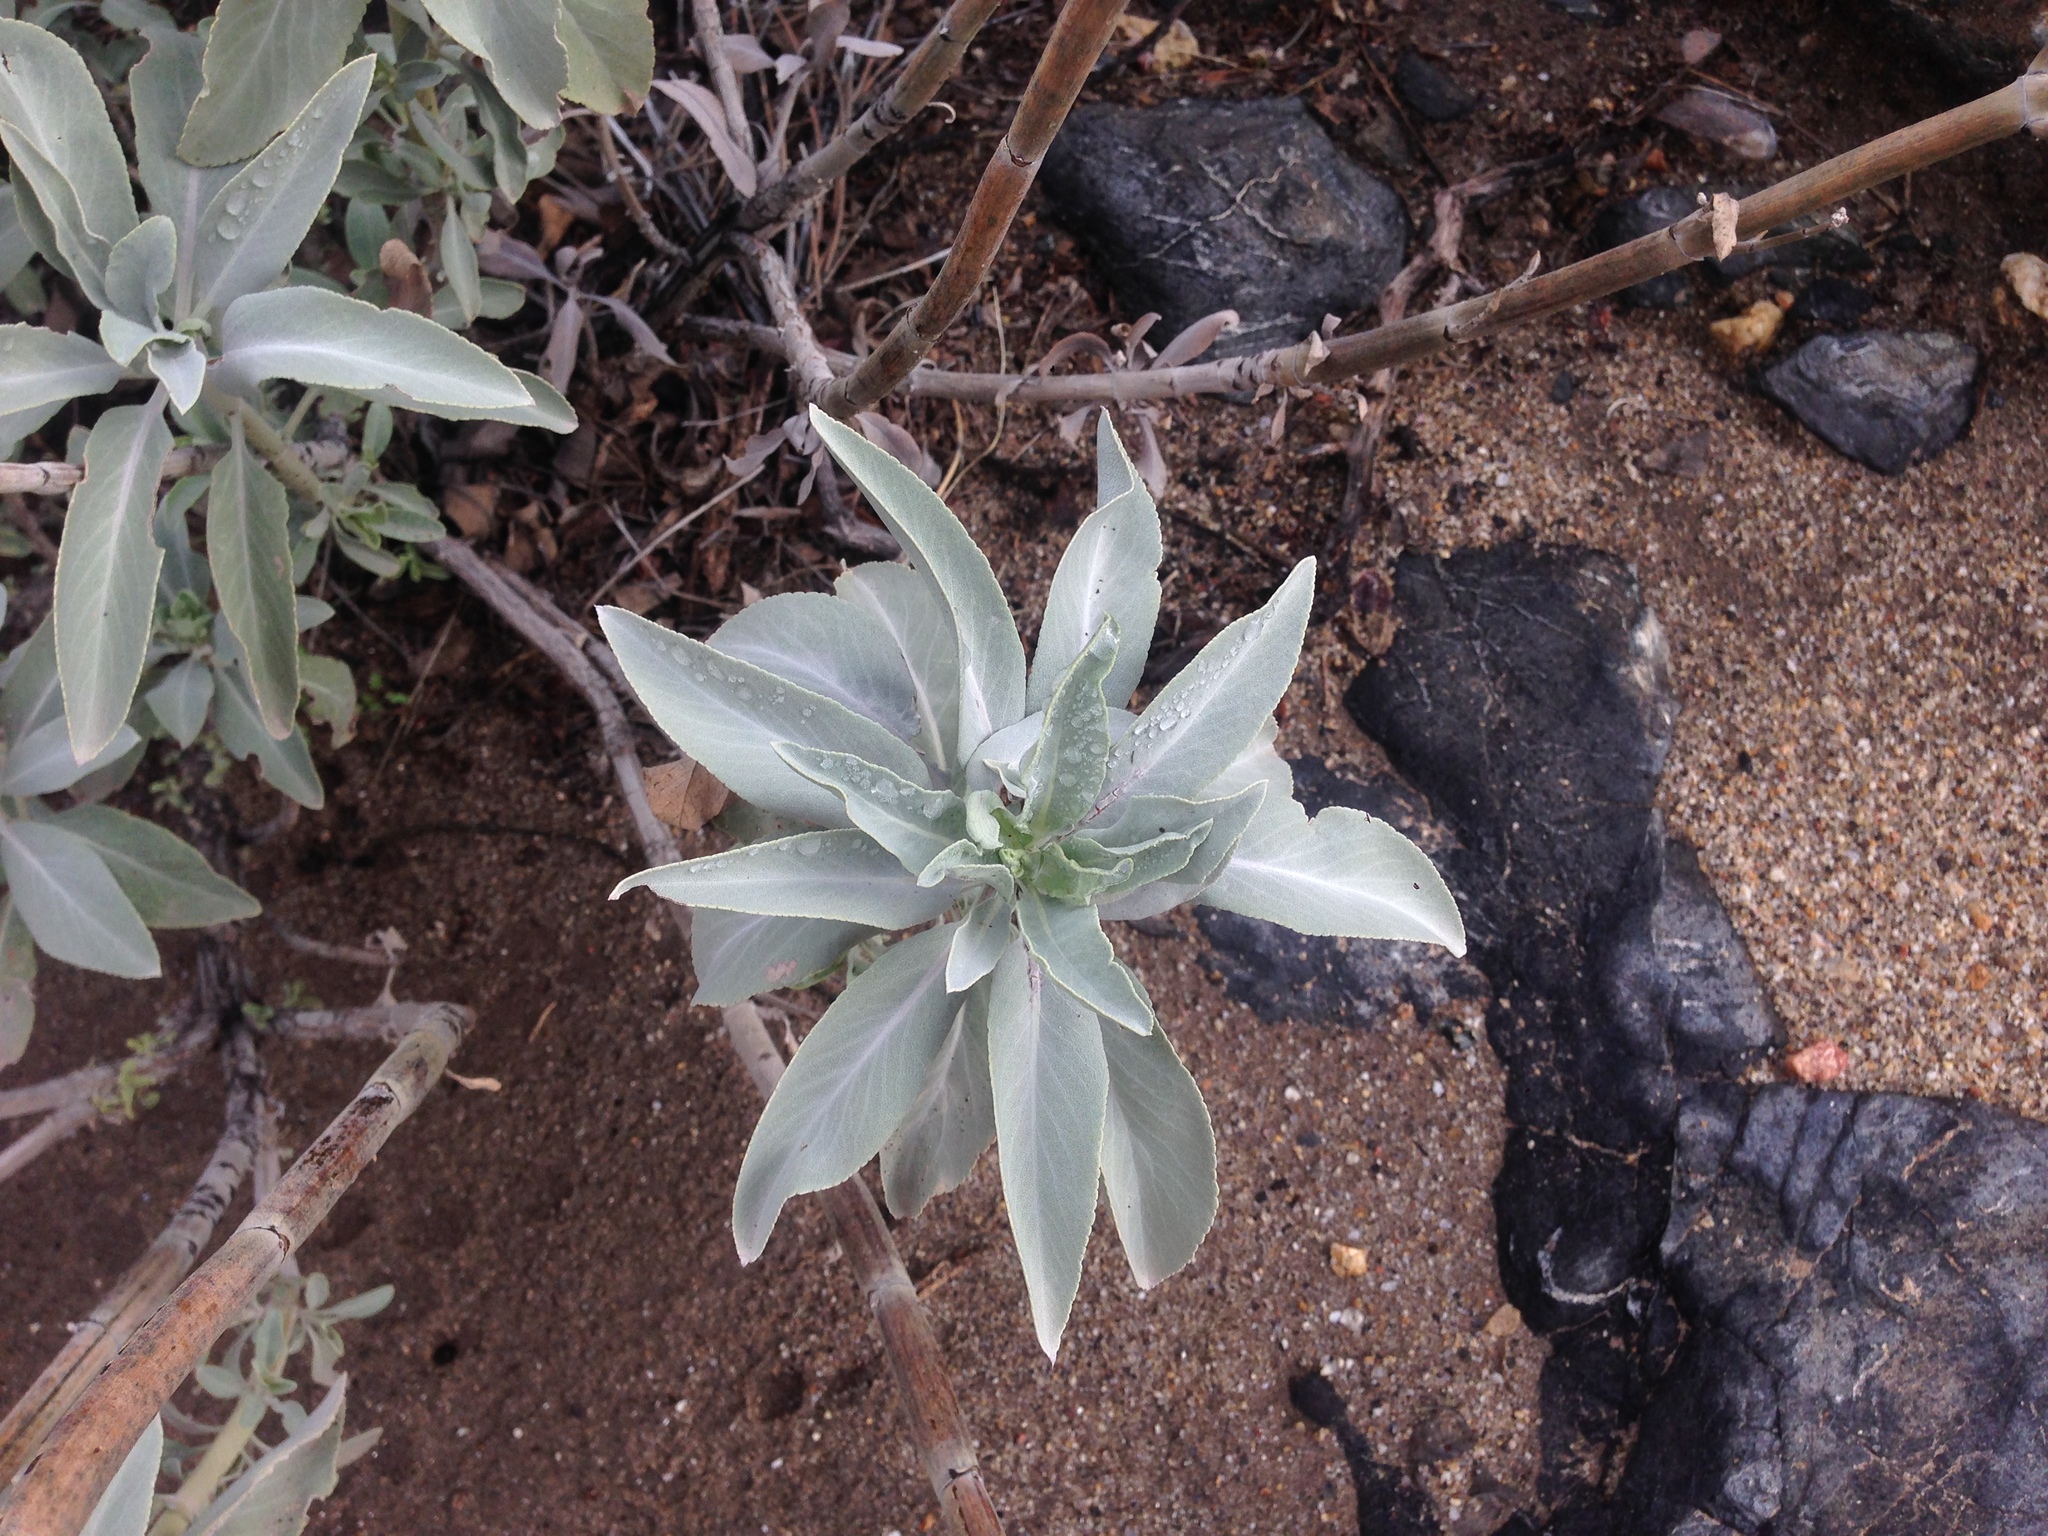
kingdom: Plantae
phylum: Tracheophyta
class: Magnoliopsida
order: Lamiales
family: Lamiaceae
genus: Salvia
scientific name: Salvia apiana
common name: White sage
